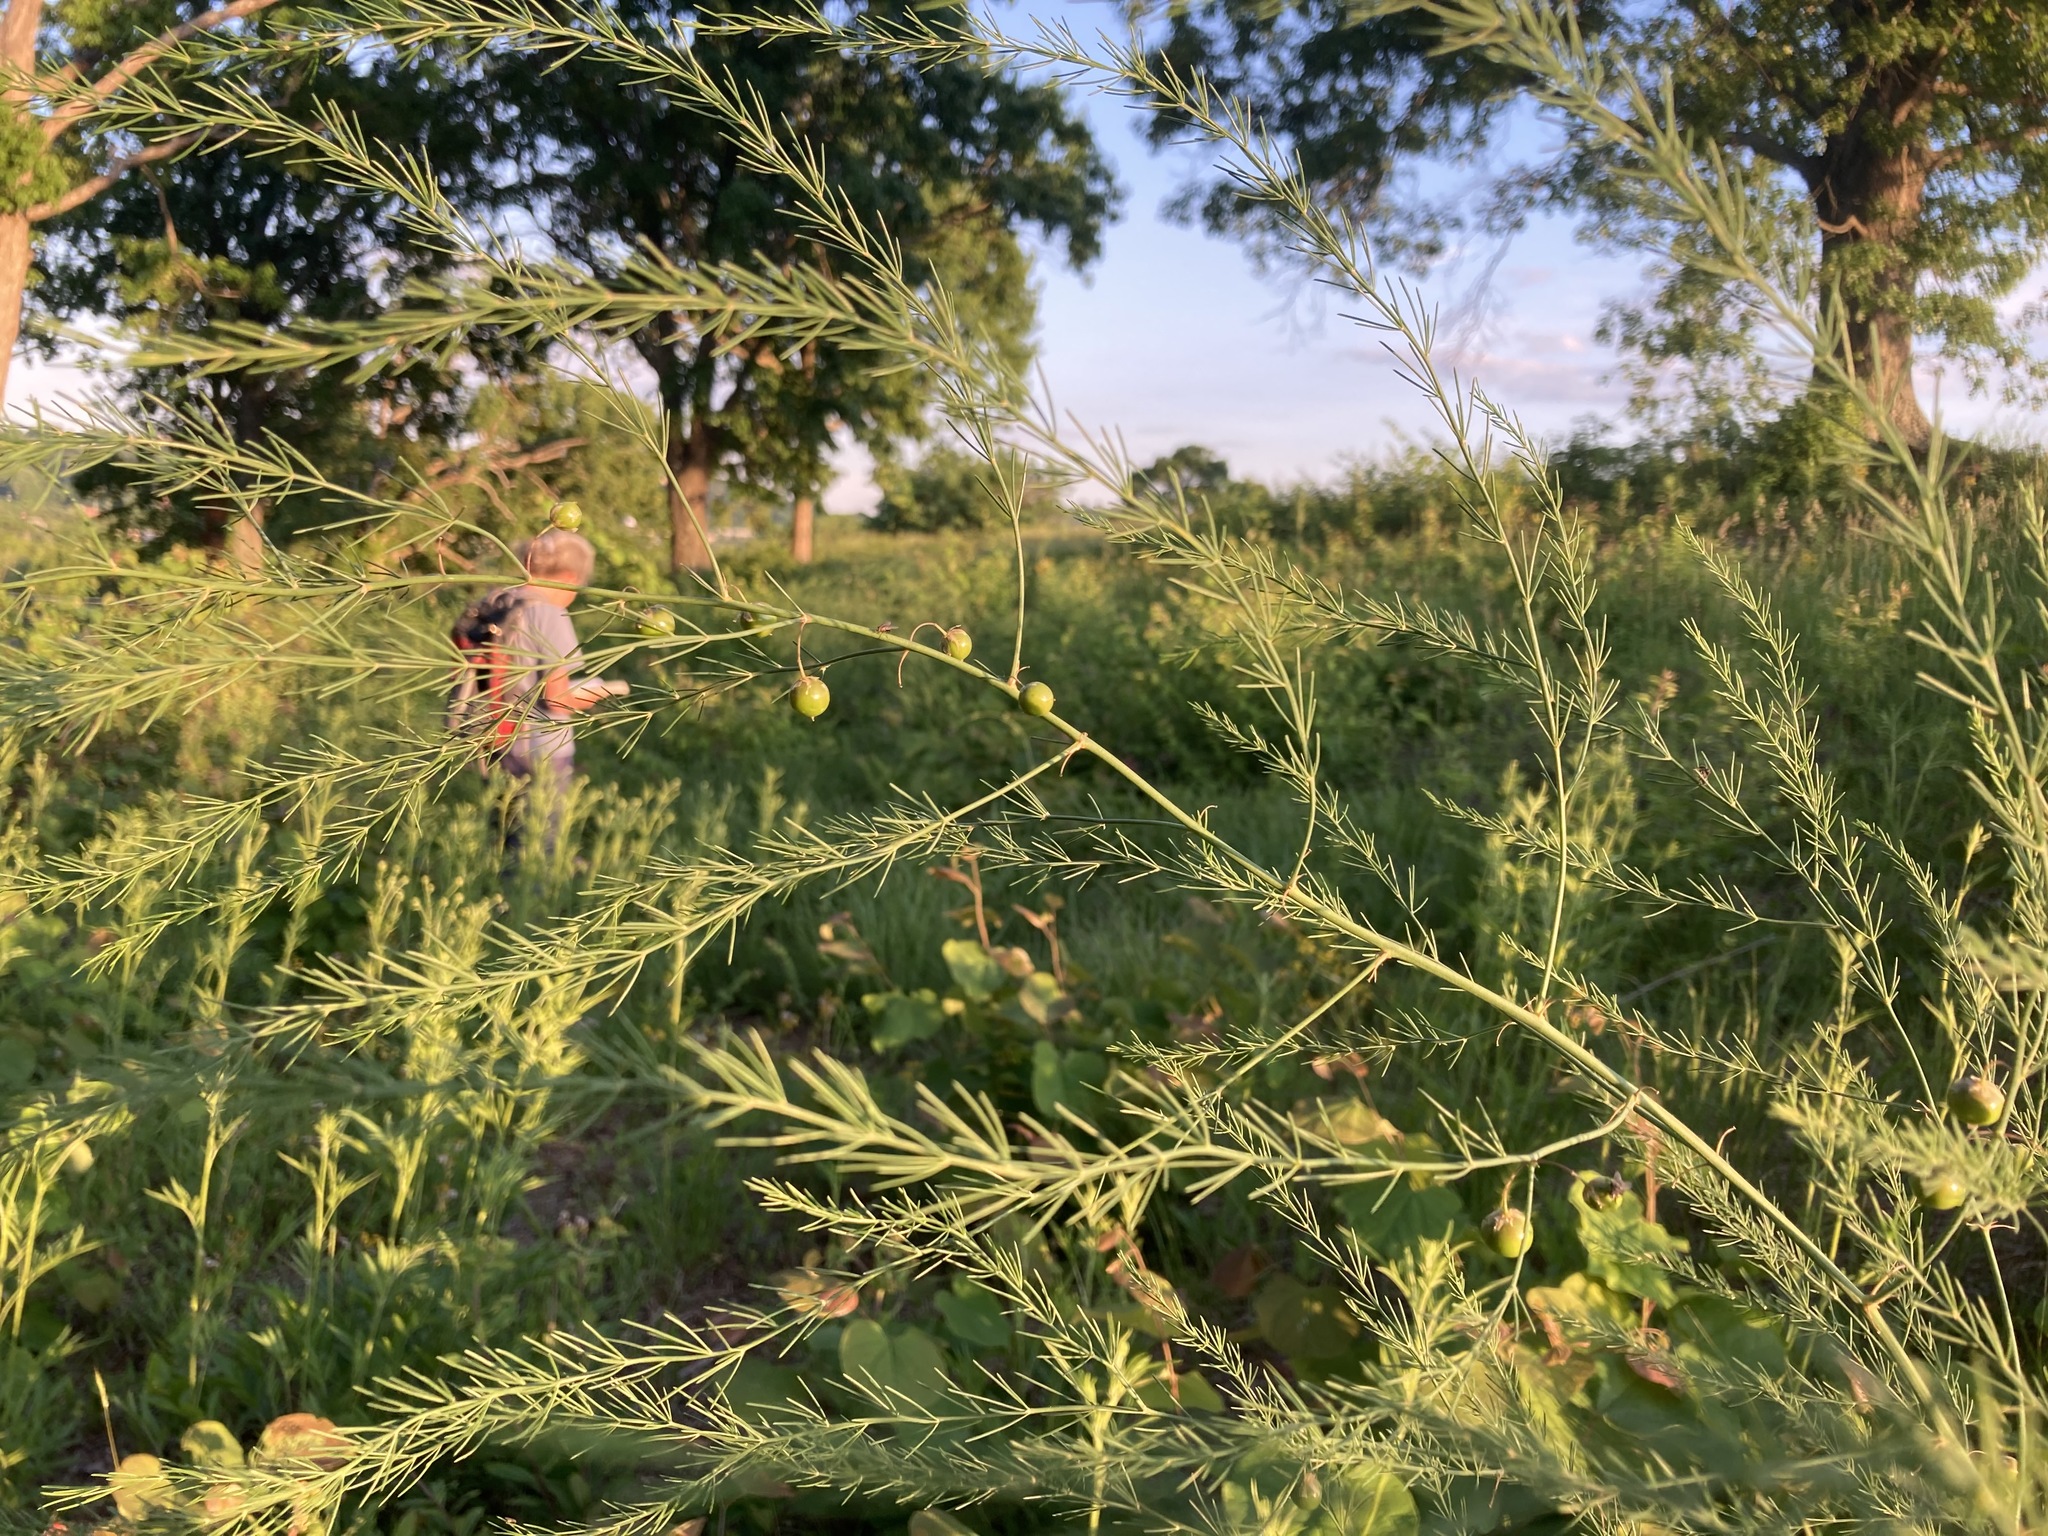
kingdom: Plantae
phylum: Tracheophyta
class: Liliopsida
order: Asparagales
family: Asparagaceae
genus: Asparagus
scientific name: Asparagus officinalis
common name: Garden asparagus
